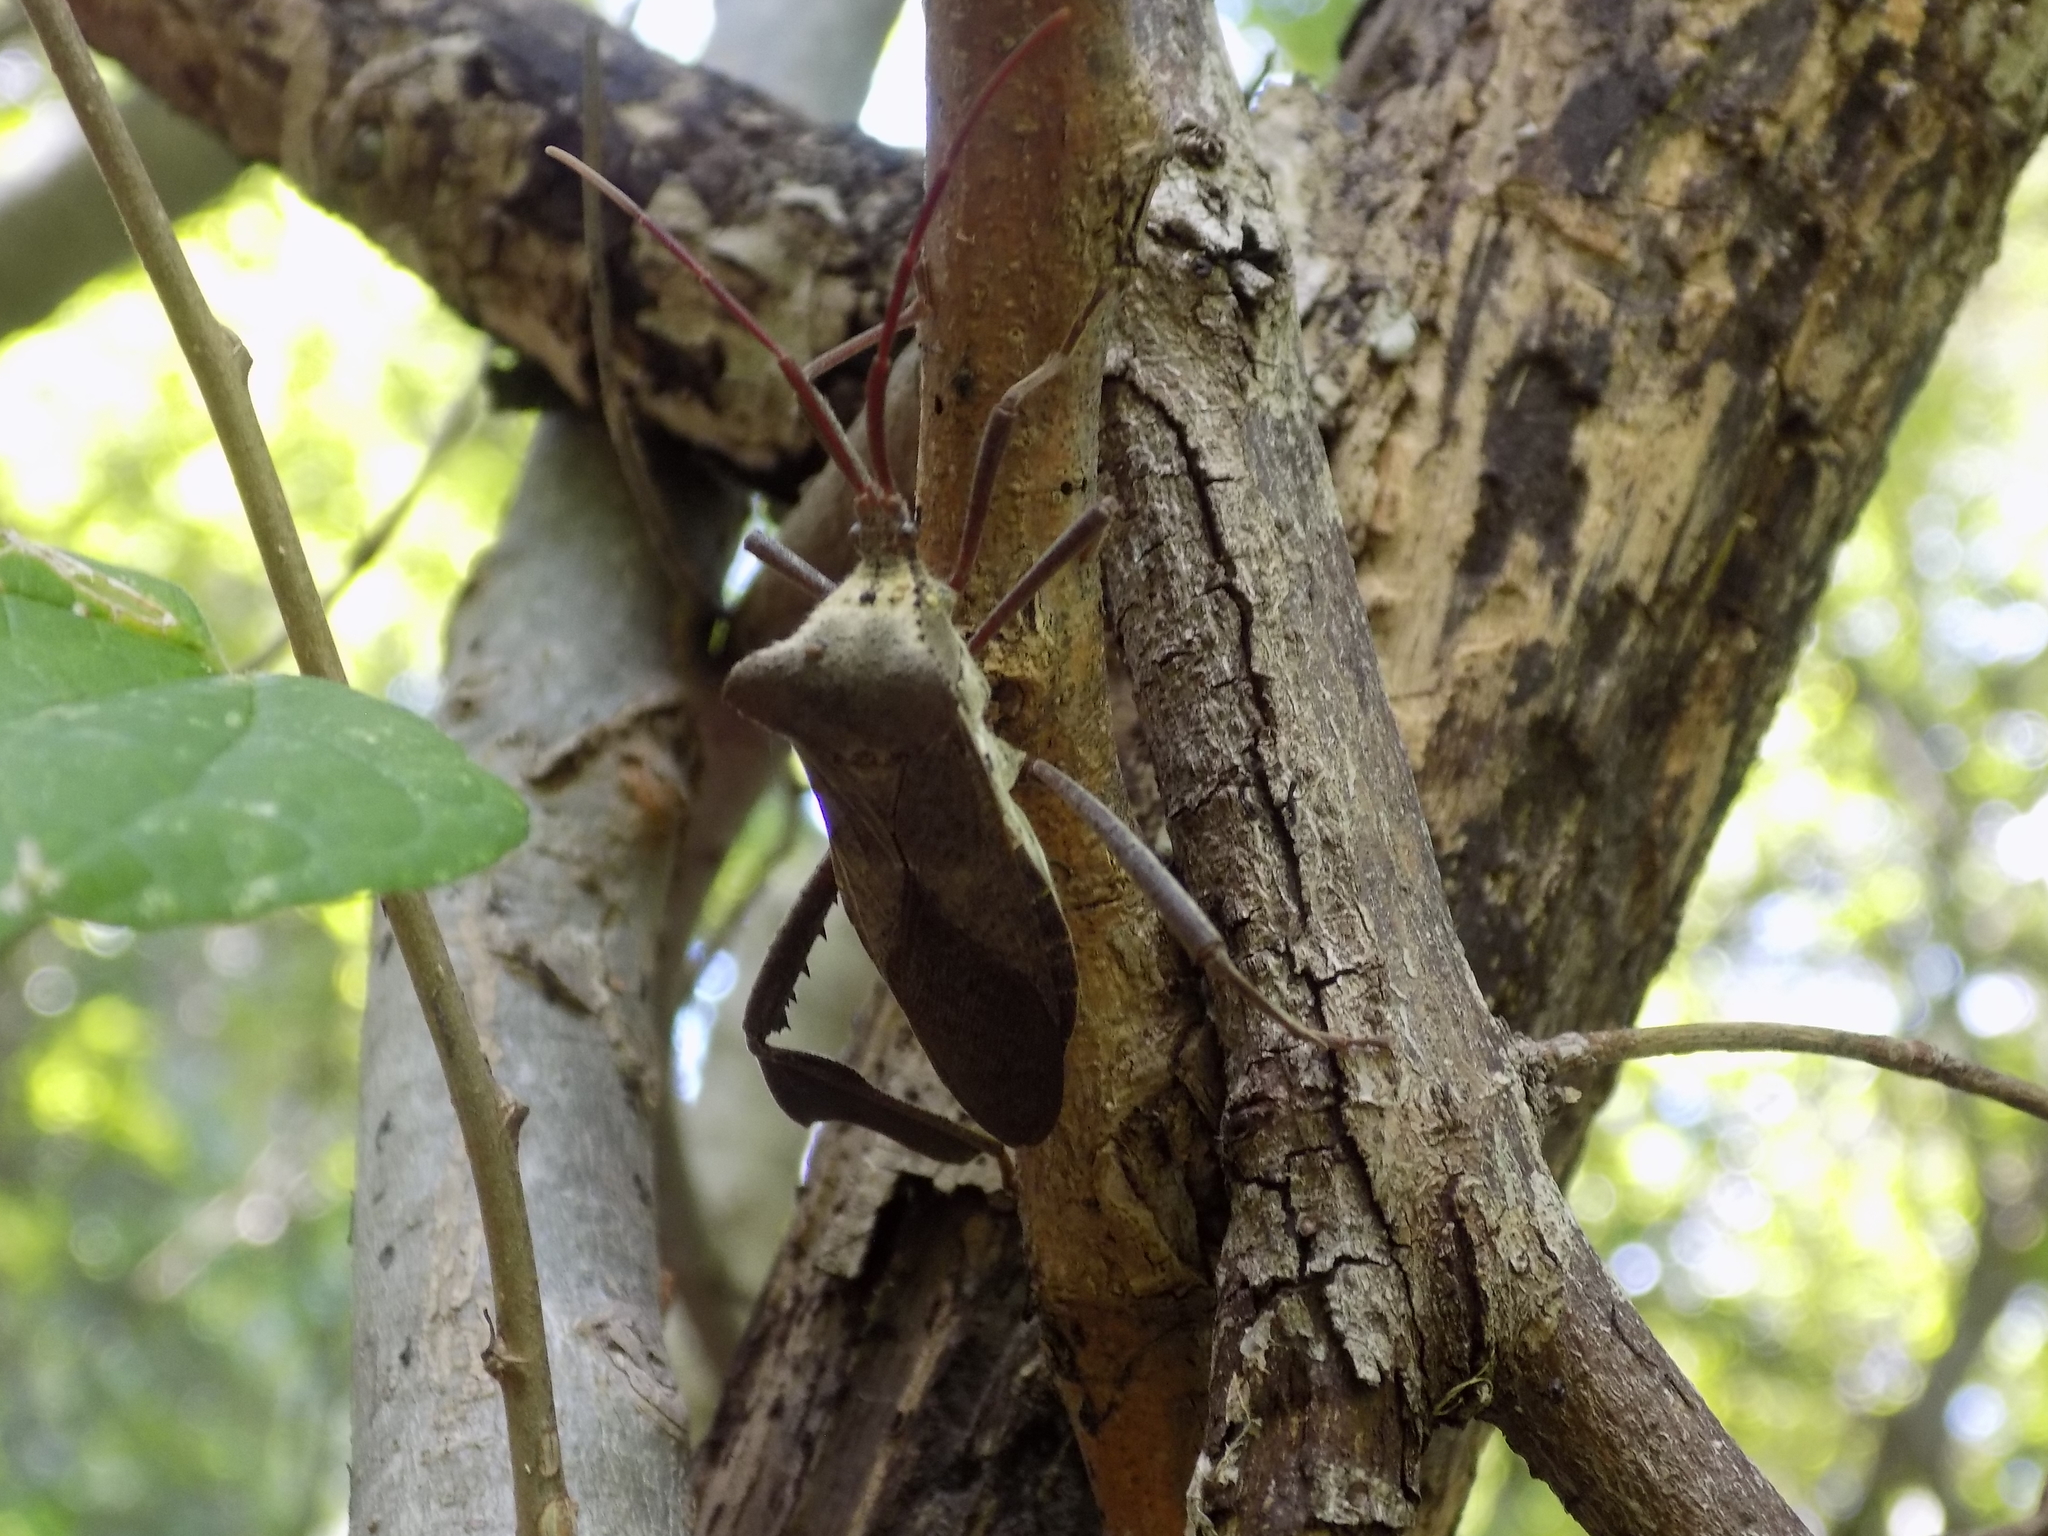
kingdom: Animalia
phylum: Arthropoda
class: Insecta
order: Hemiptera
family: Coreidae
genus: Acanthocephala
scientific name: Acanthocephala declivis
